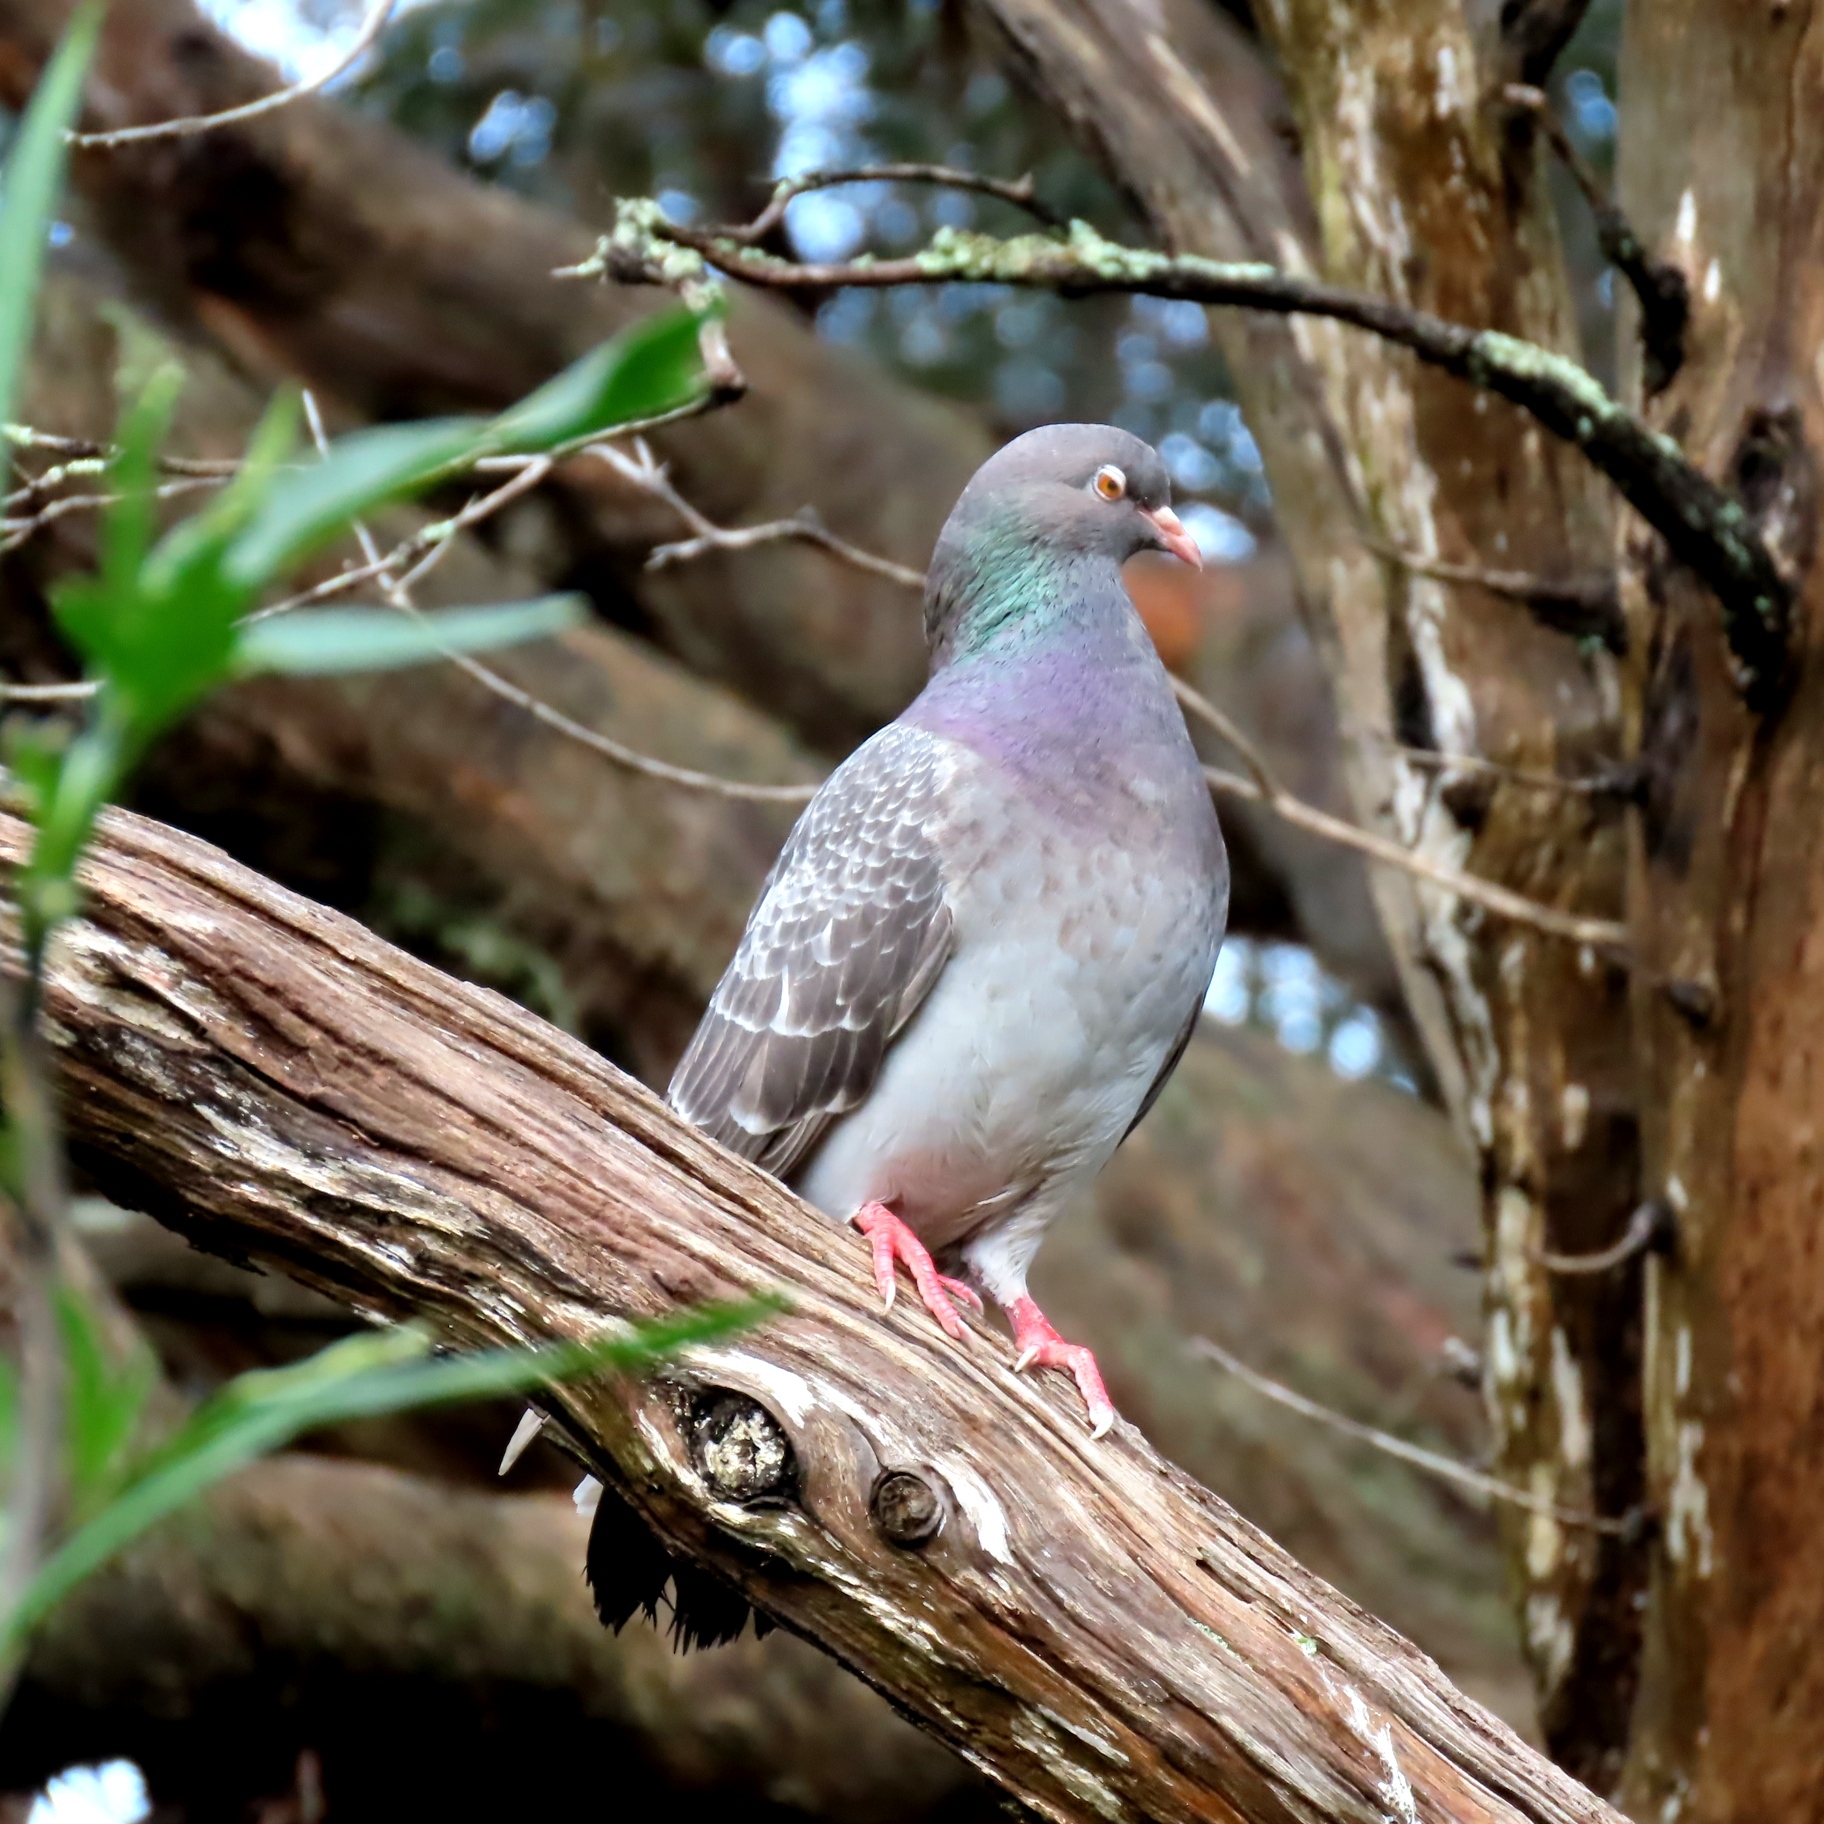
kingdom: Animalia
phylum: Chordata
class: Aves
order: Columbiformes
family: Columbidae
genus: Columba
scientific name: Columba livia
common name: Rock pigeon
